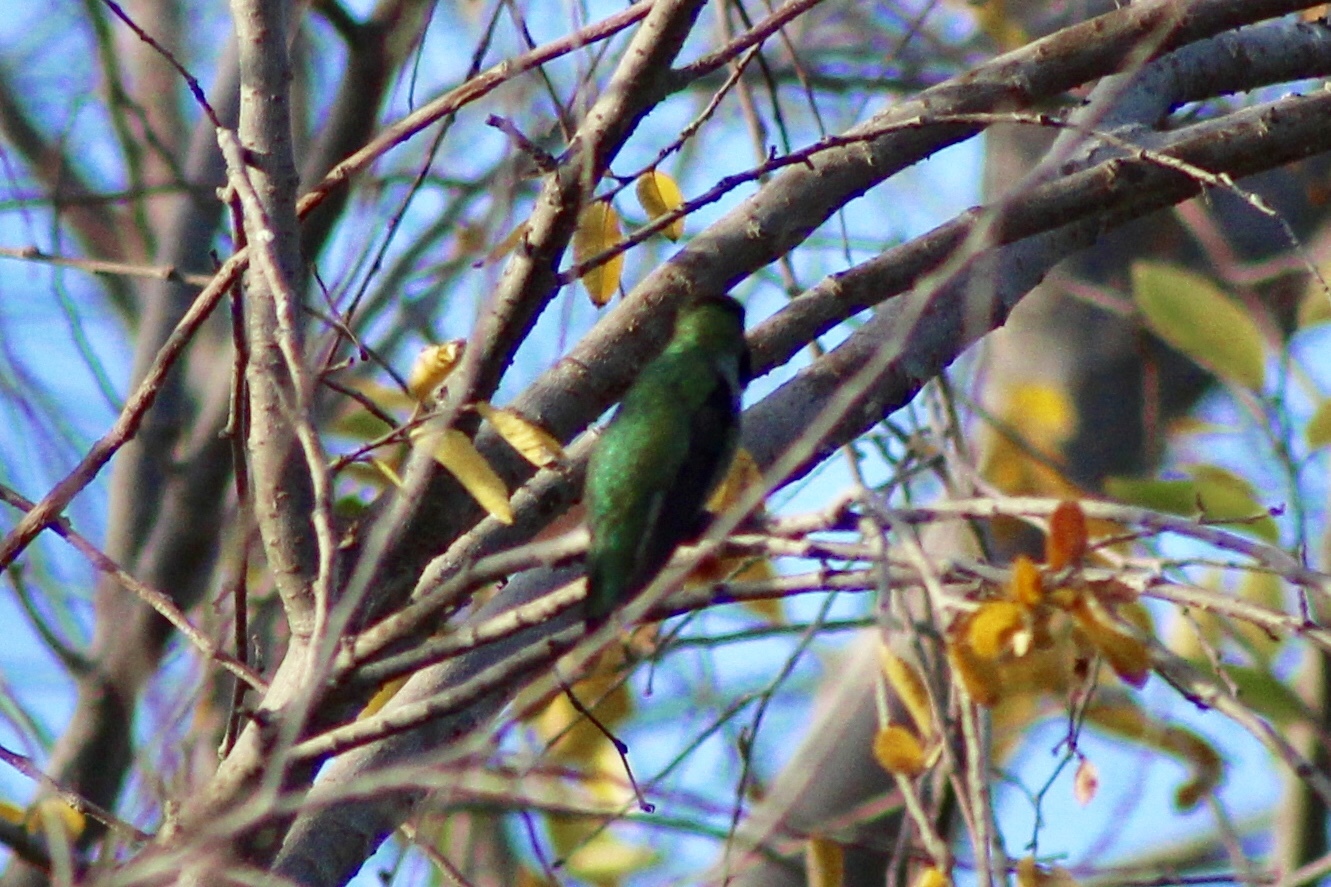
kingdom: Animalia
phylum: Chordata
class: Aves
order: Apodiformes
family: Trochilidae
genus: Calypte
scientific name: Calypte anna
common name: Anna's hummingbird
